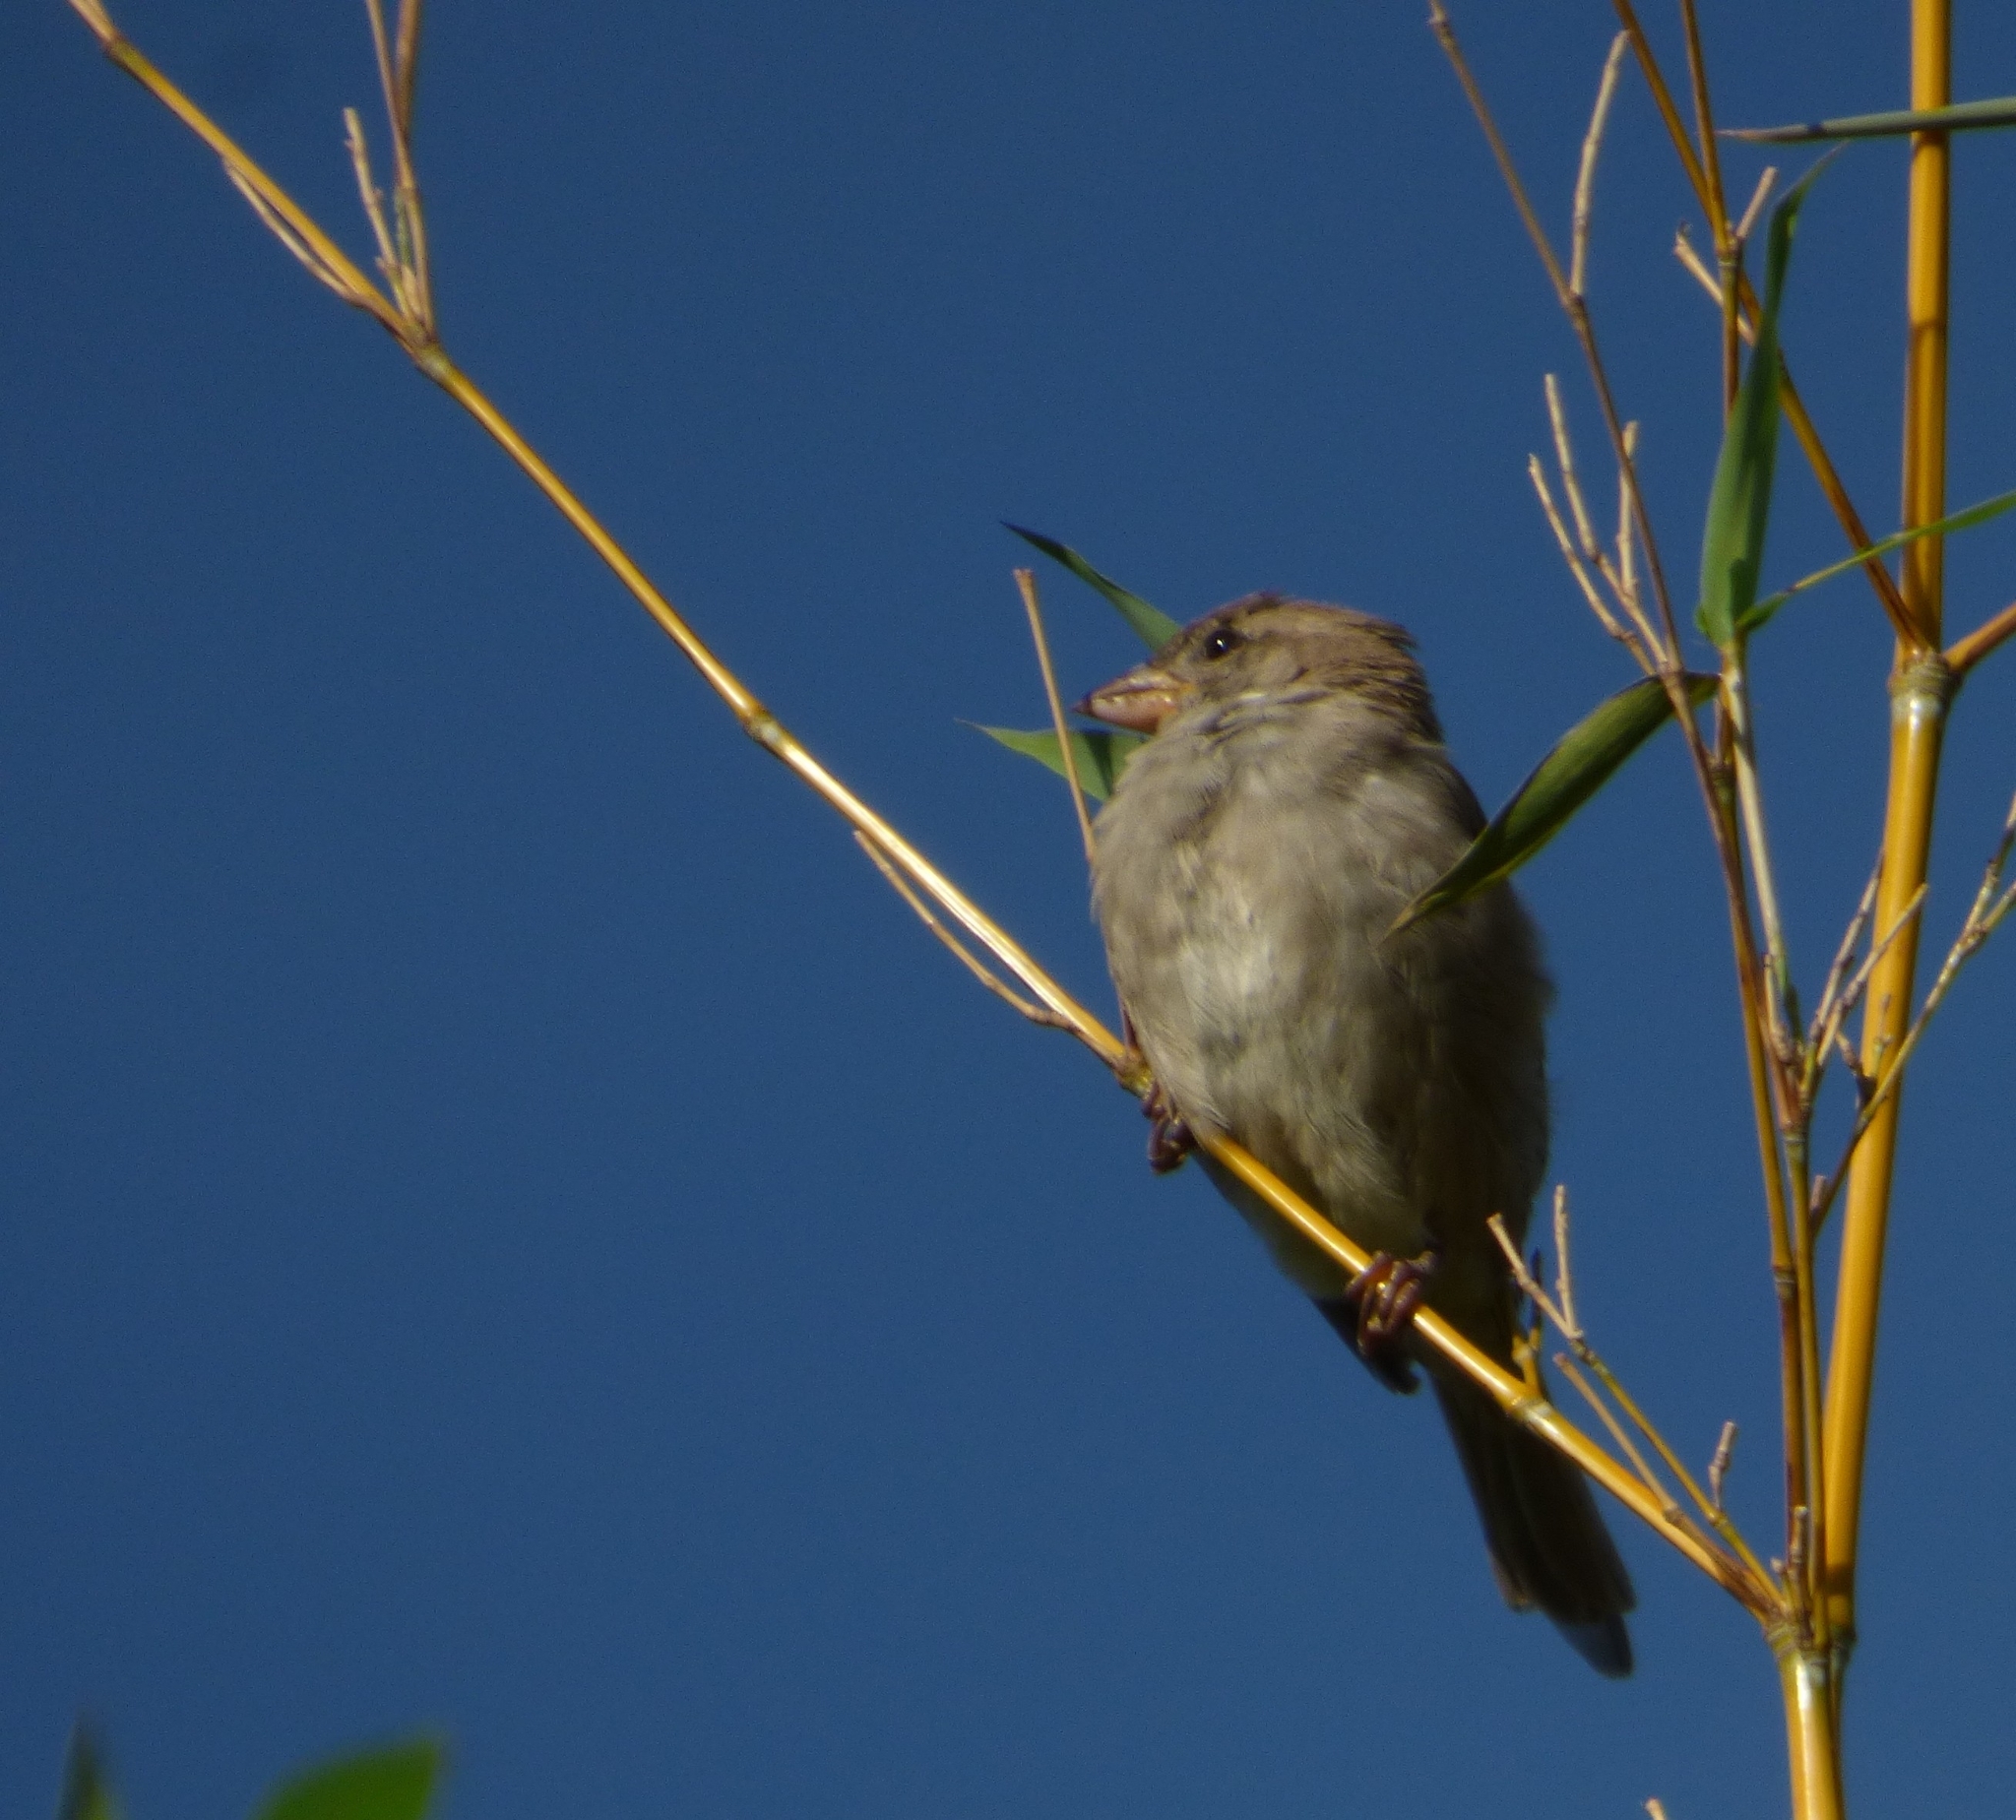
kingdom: Animalia
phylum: Chordata
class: Aves
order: Passeriformes
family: Passeridae
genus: Passer
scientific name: Passer domesticus
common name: House sparrow
